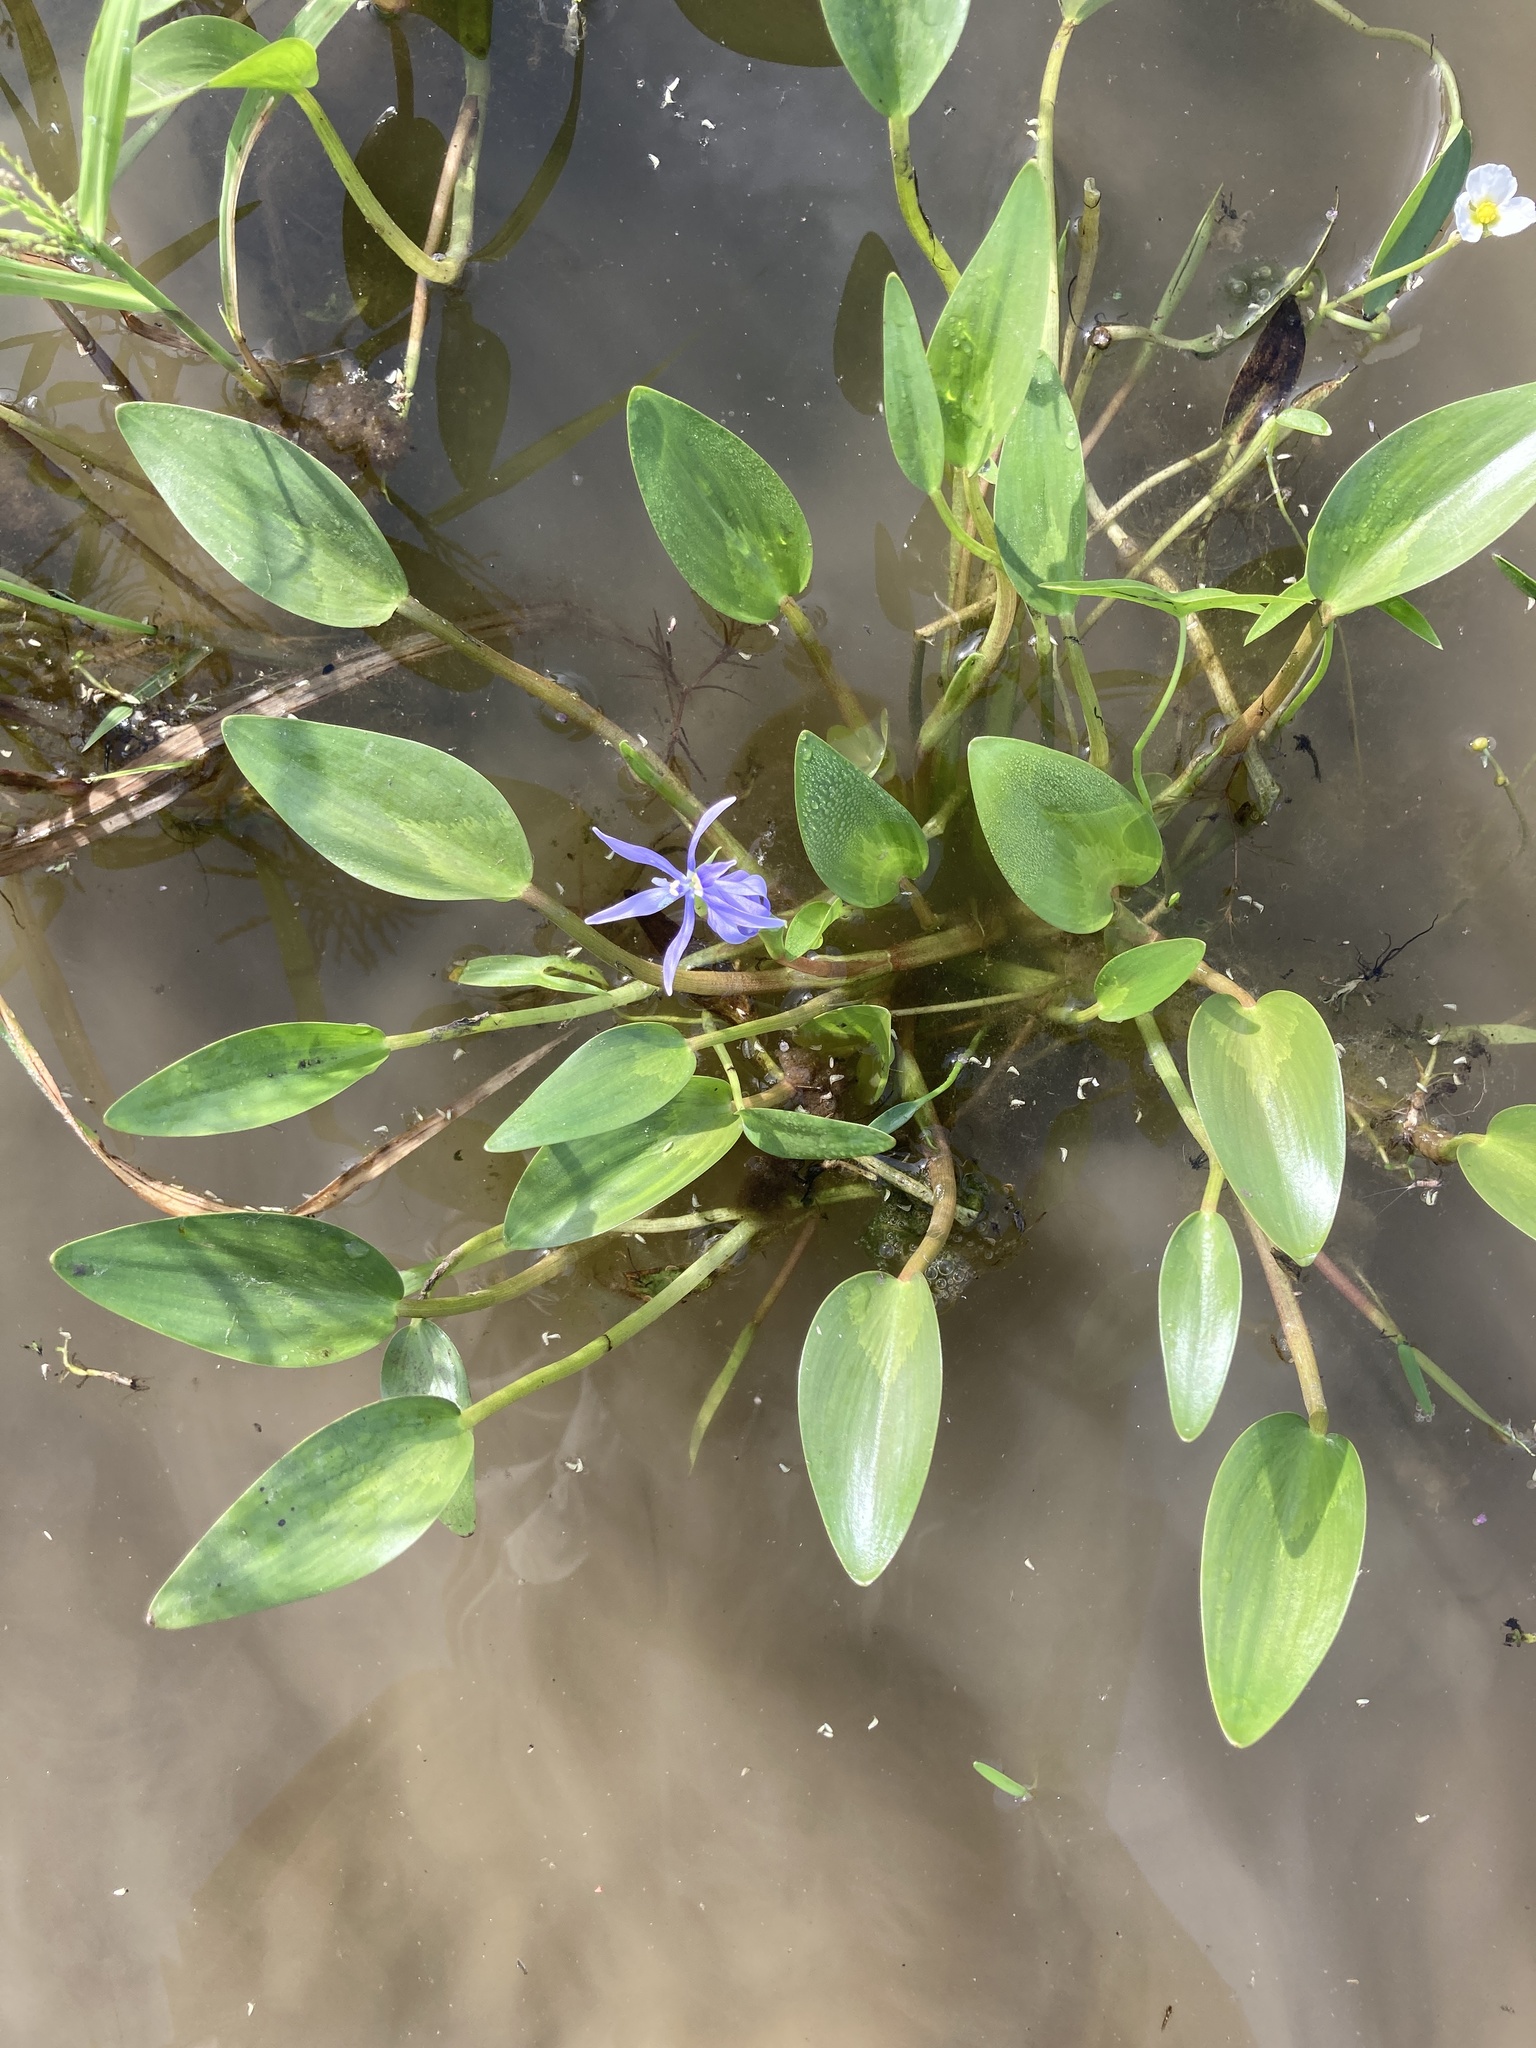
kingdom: Plantae
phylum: Tracheophyta
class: Liliopsida
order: Commelinales
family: Pontederiaceae
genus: Heteranthera
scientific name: Heteranthera limosa
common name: Blue mud-plantain
